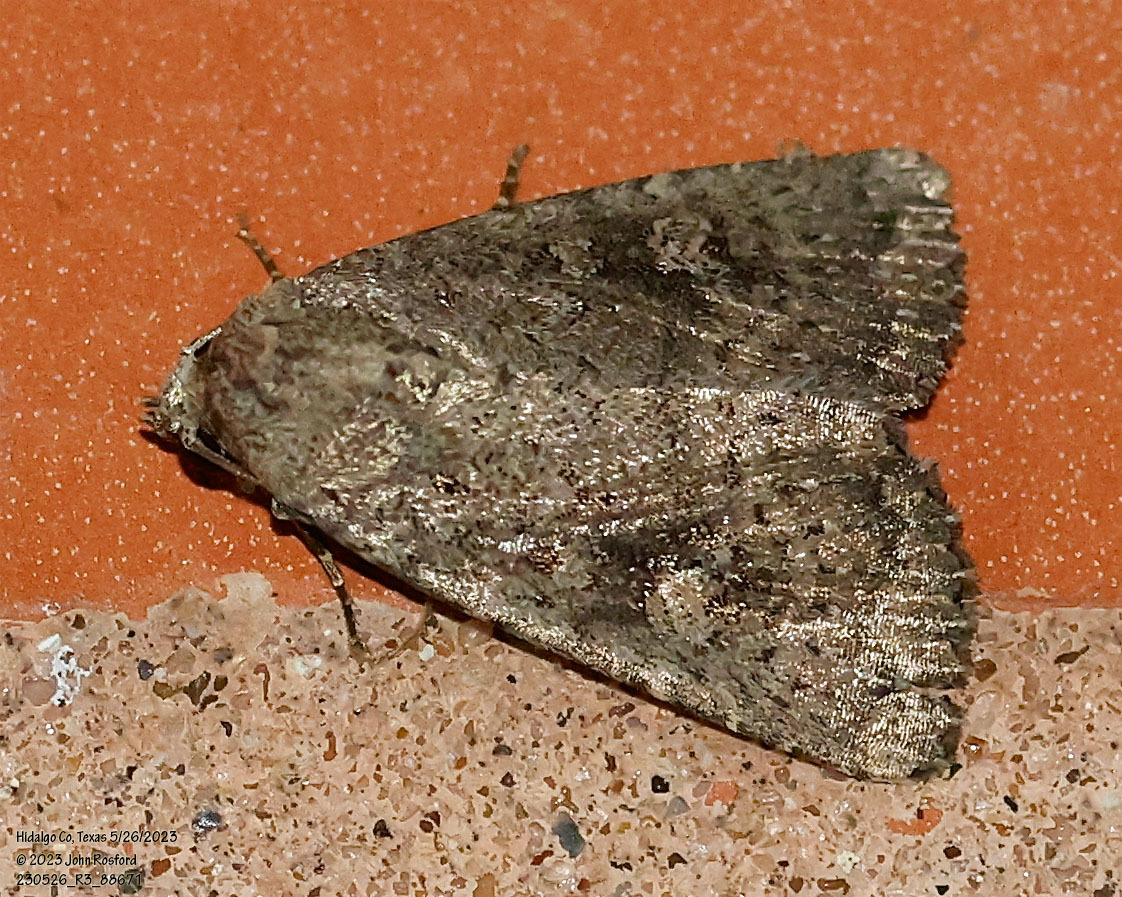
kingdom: Animalia
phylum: Arthropoda
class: Insecta
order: Lepidoptera
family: Noctuidae
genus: Condica
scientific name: Condica morsa
